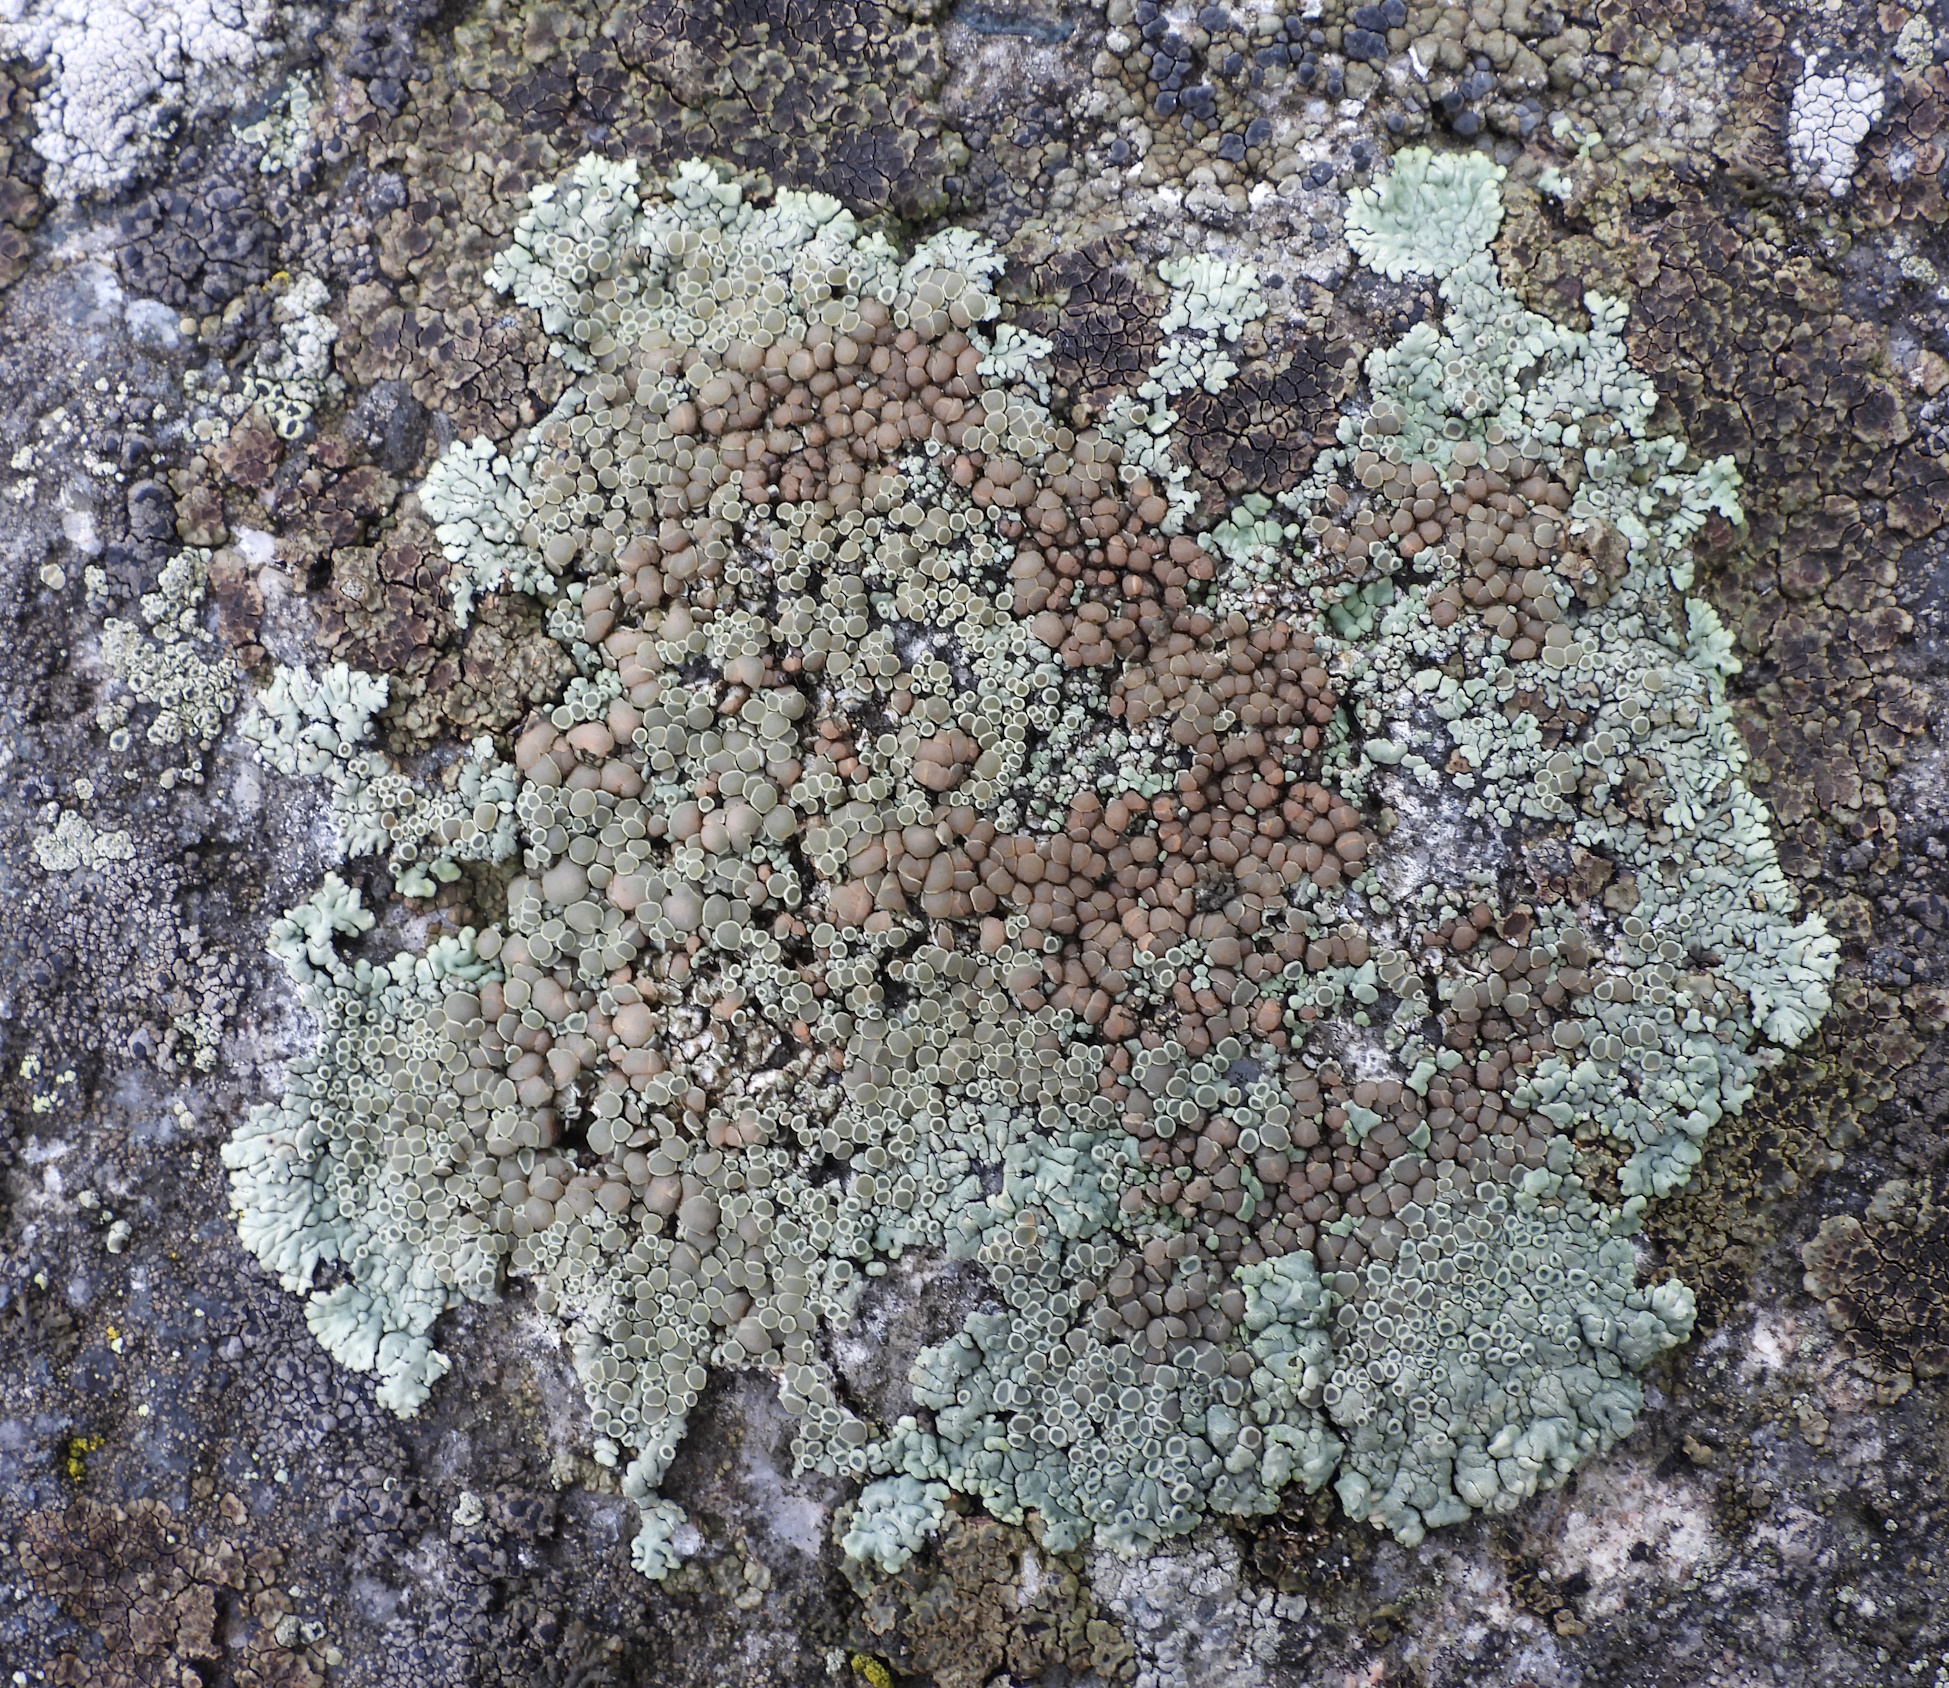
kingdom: Fungi
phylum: Ascomycota
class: Lecanoromycetes
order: Lecanorales
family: Lecanoraceae
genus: Protoparmeliopsis
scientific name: Protoparmeliopsis muralis
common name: Stonewall rim lichen
